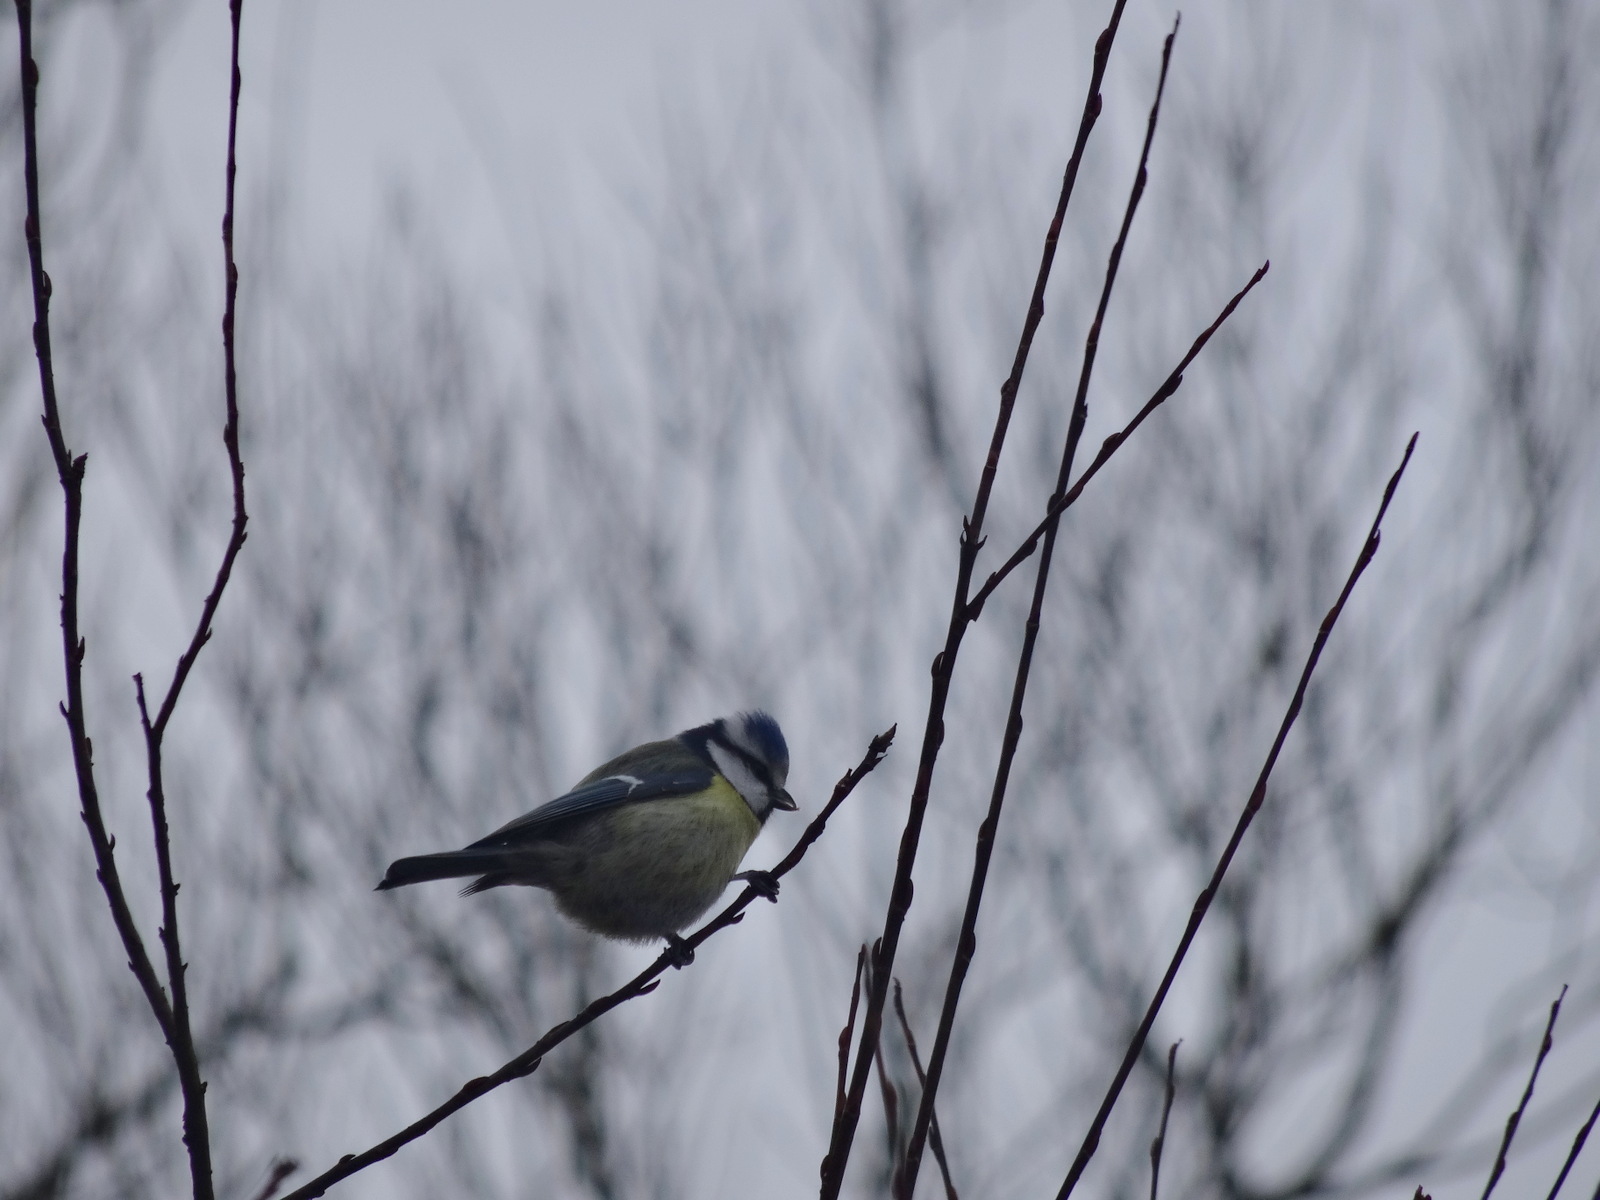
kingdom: Animalia
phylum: Chordata
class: Aves
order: Passeriformes
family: Paridae
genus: Cyanistes
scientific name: Cyanistes caeruleus
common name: Eurasian blue tit
